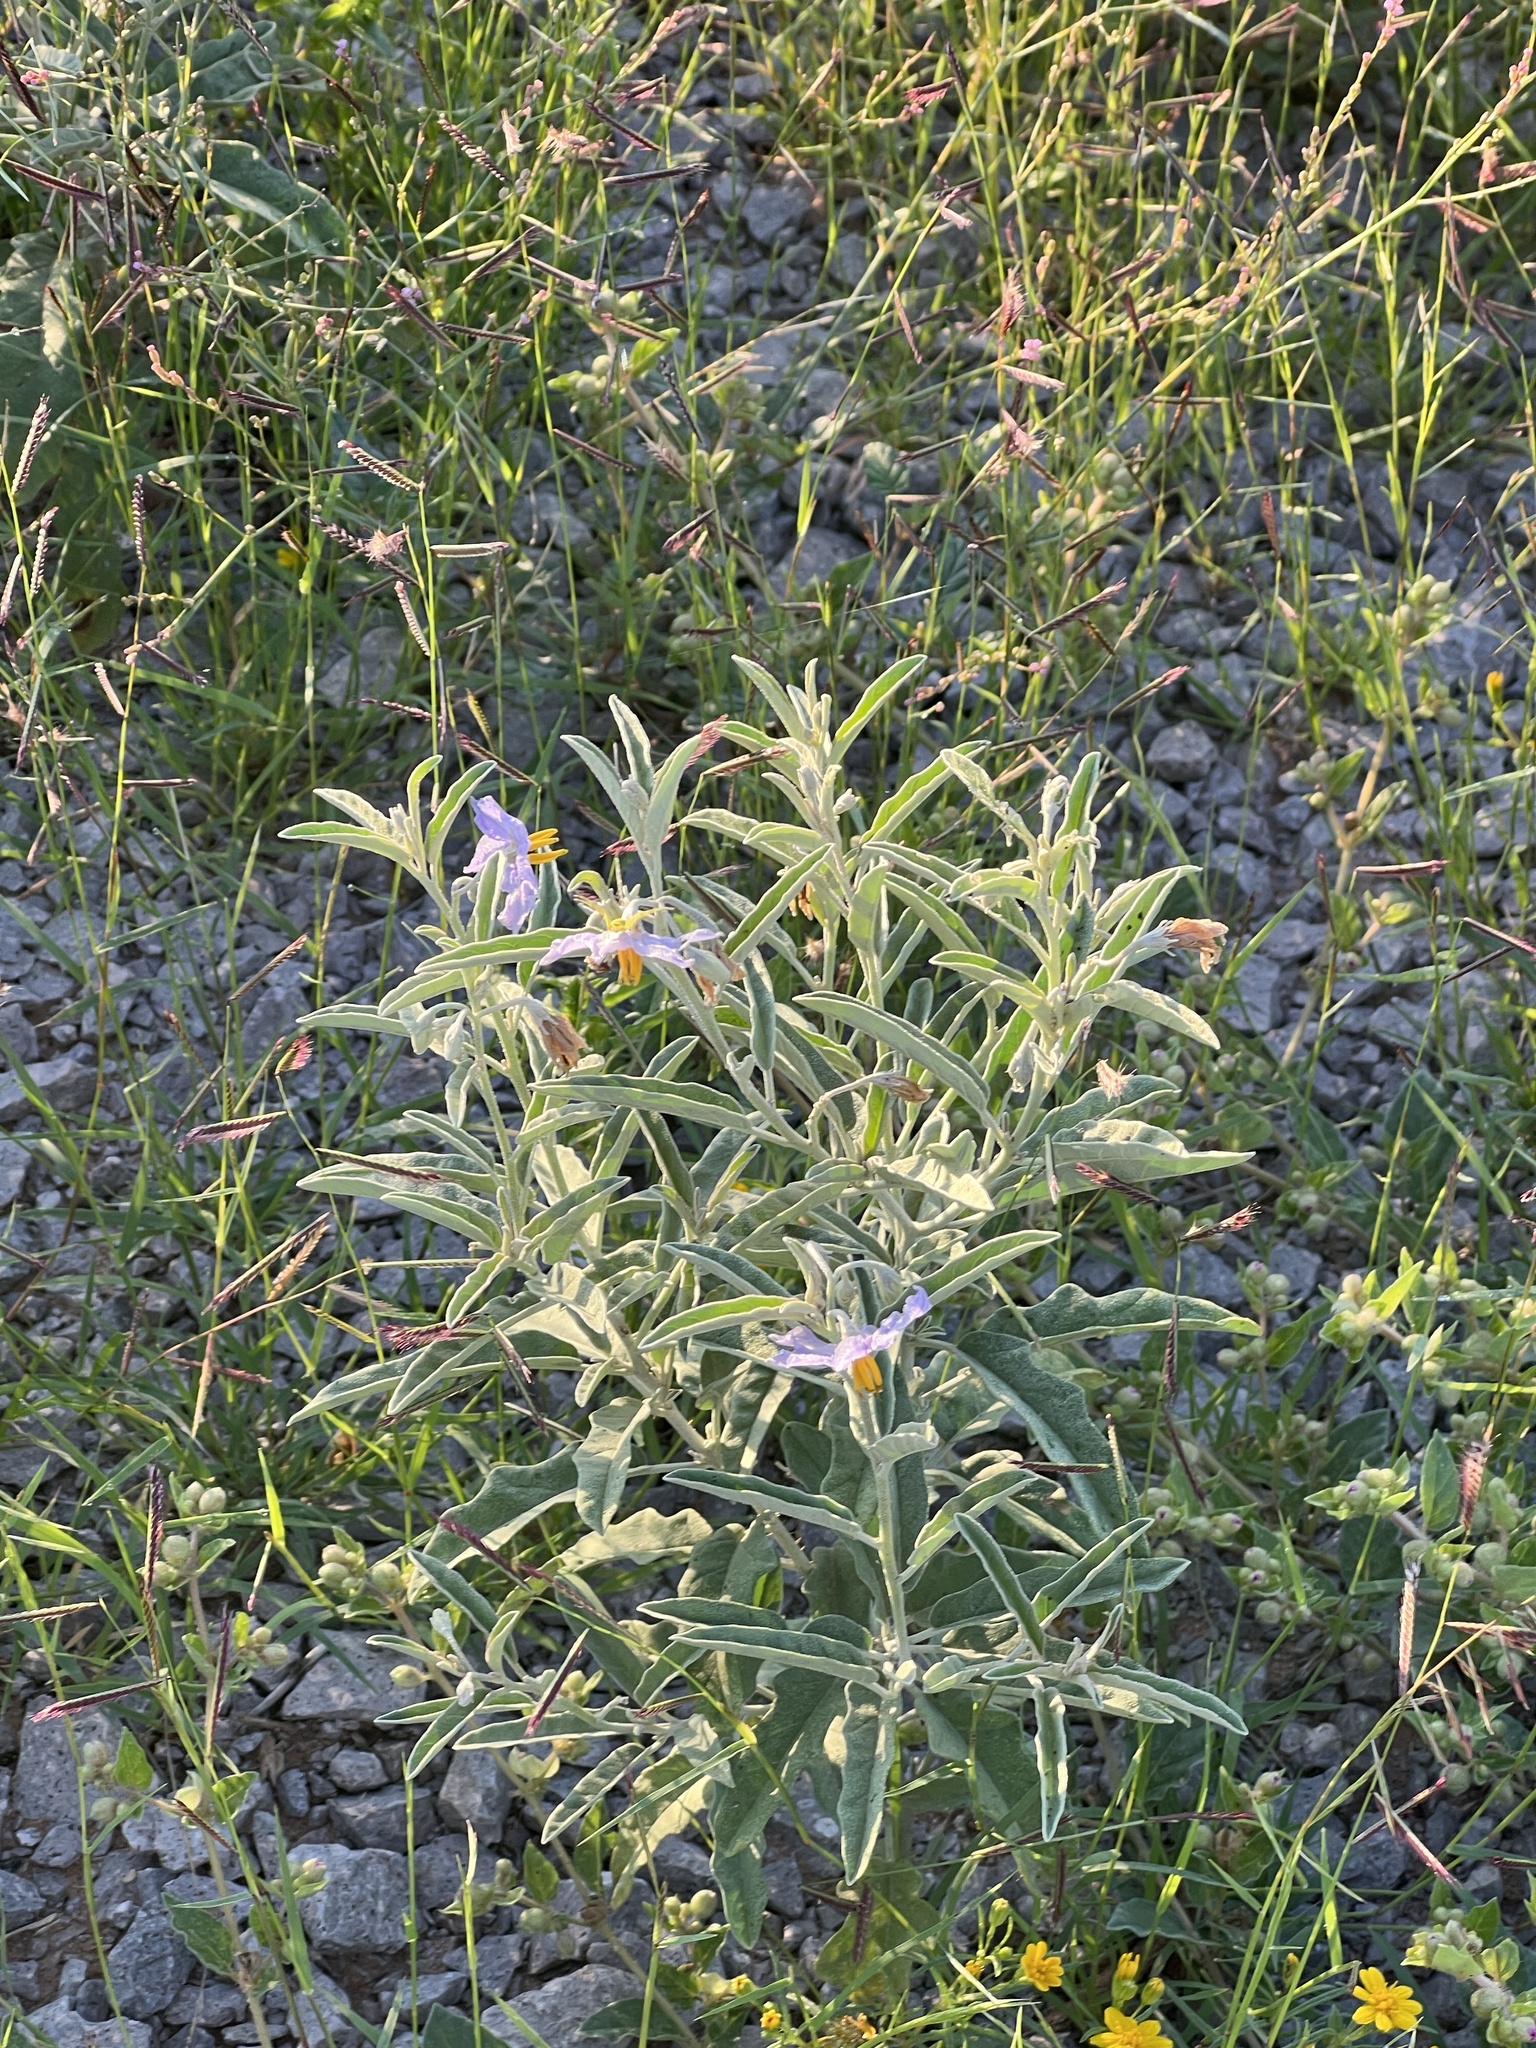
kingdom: Plantae
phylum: Tracheophyta
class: Magnoliopsida
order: Solanales
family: Solanaceae
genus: Solanum
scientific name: Solanum elaeagnifolium
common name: Silverleaf nightshade
